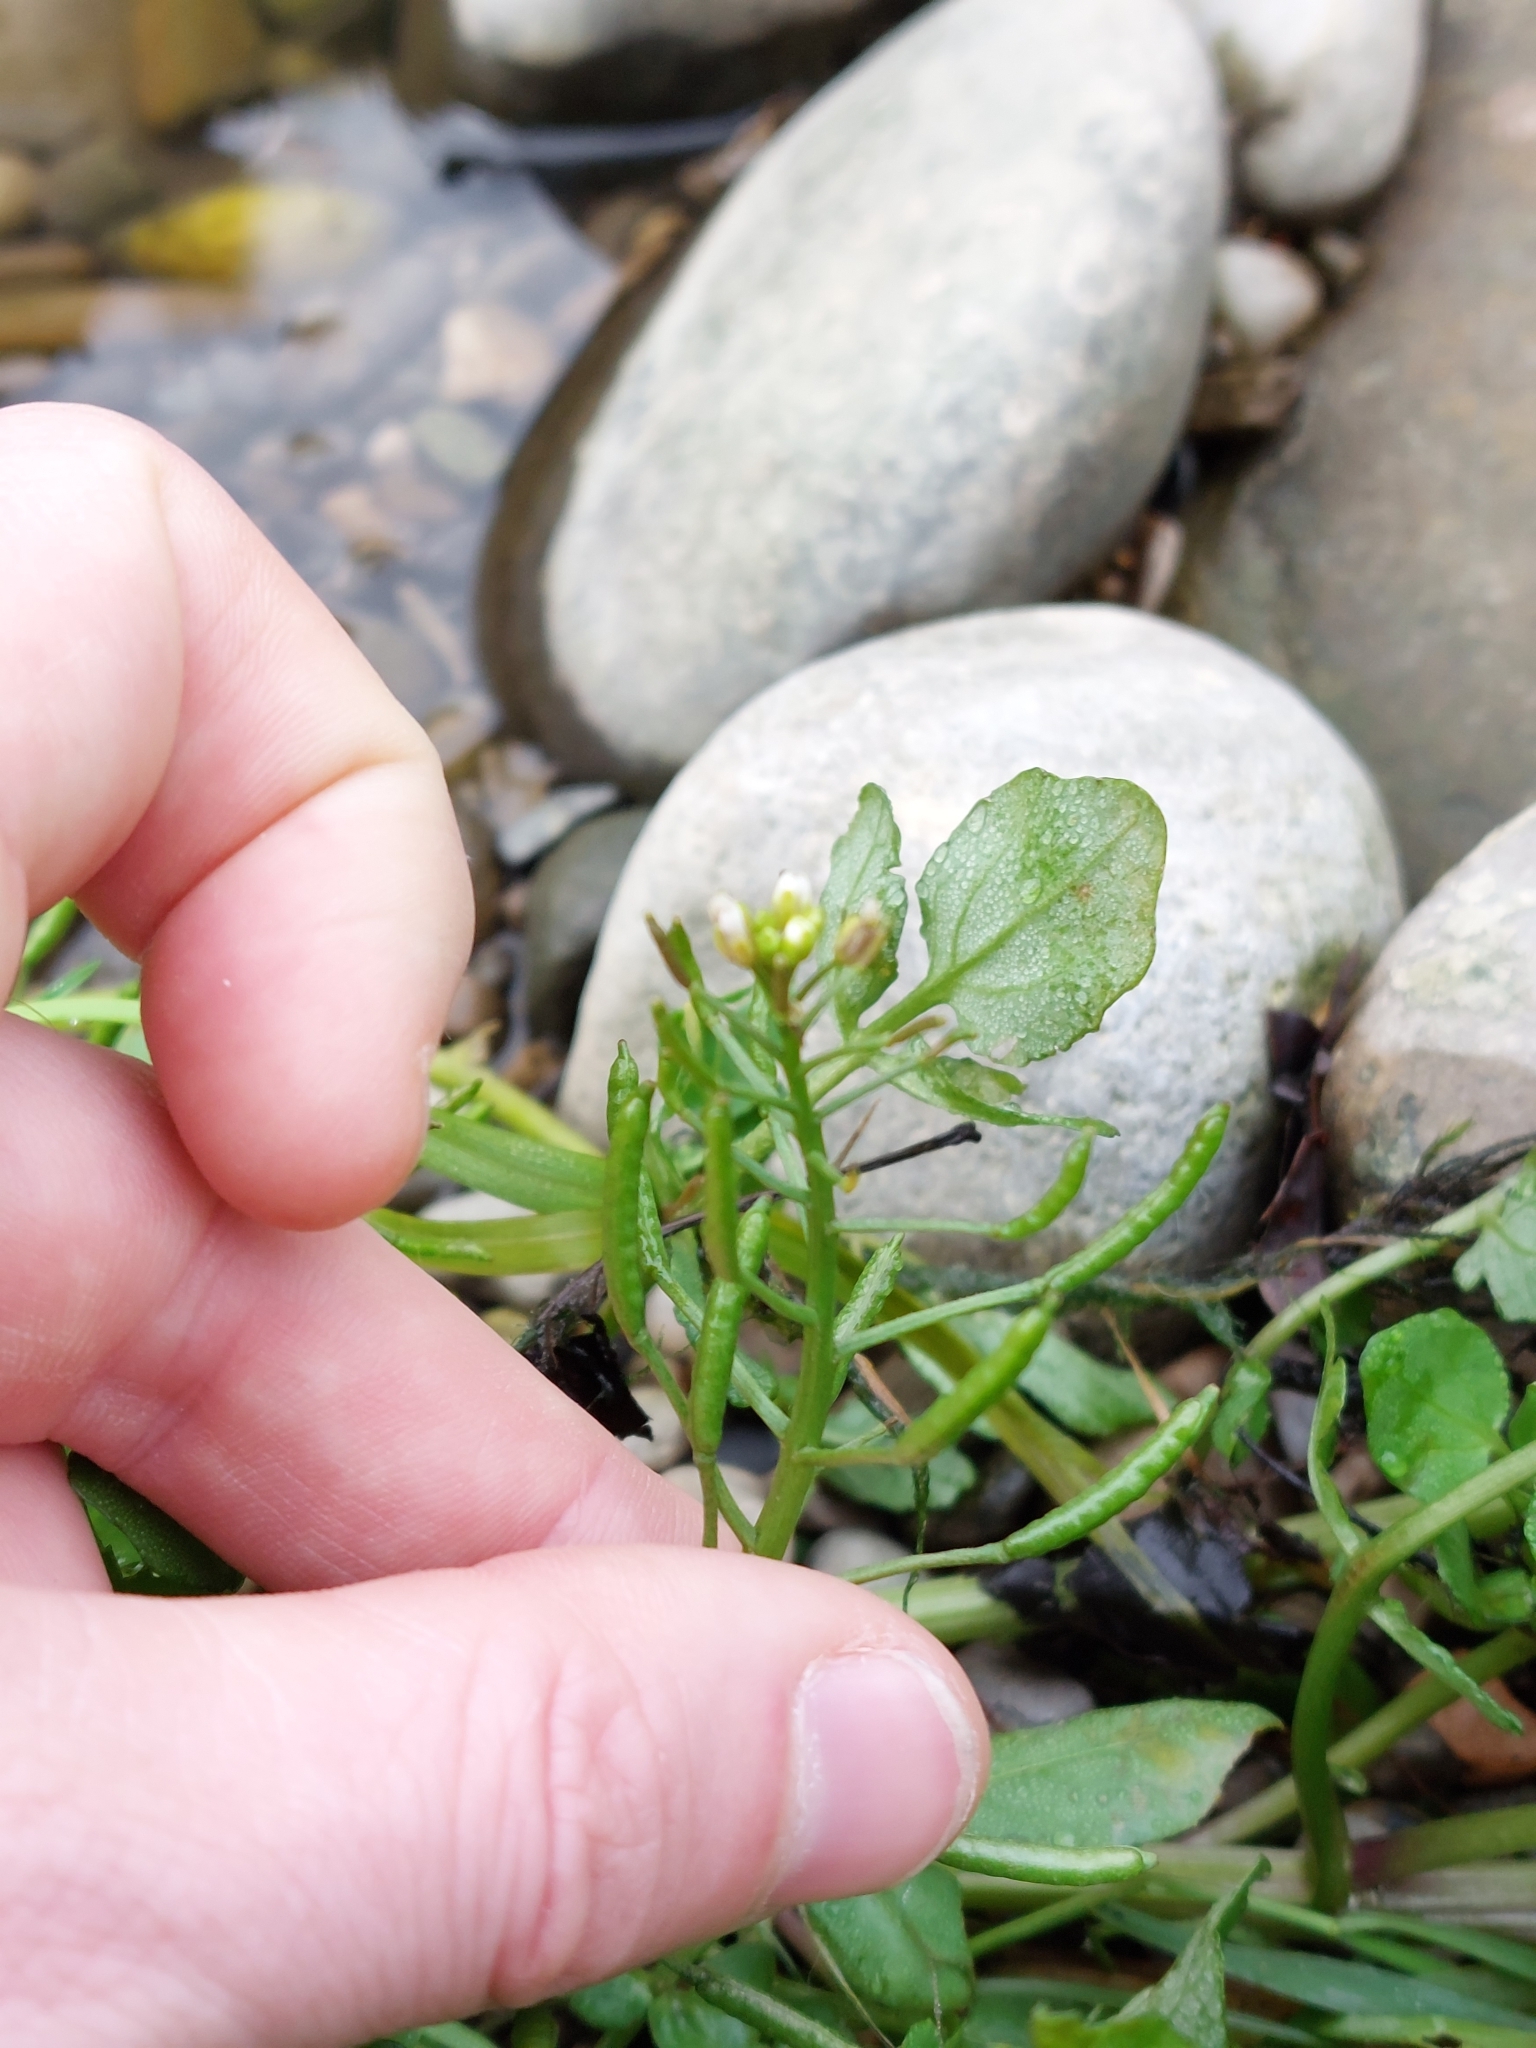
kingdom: Plantae
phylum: Tracheophyta
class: Magnoliopsida
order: Brassicales
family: Brassicaceae
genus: Nasturtium
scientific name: Nasturtium officinale
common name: Watercress
